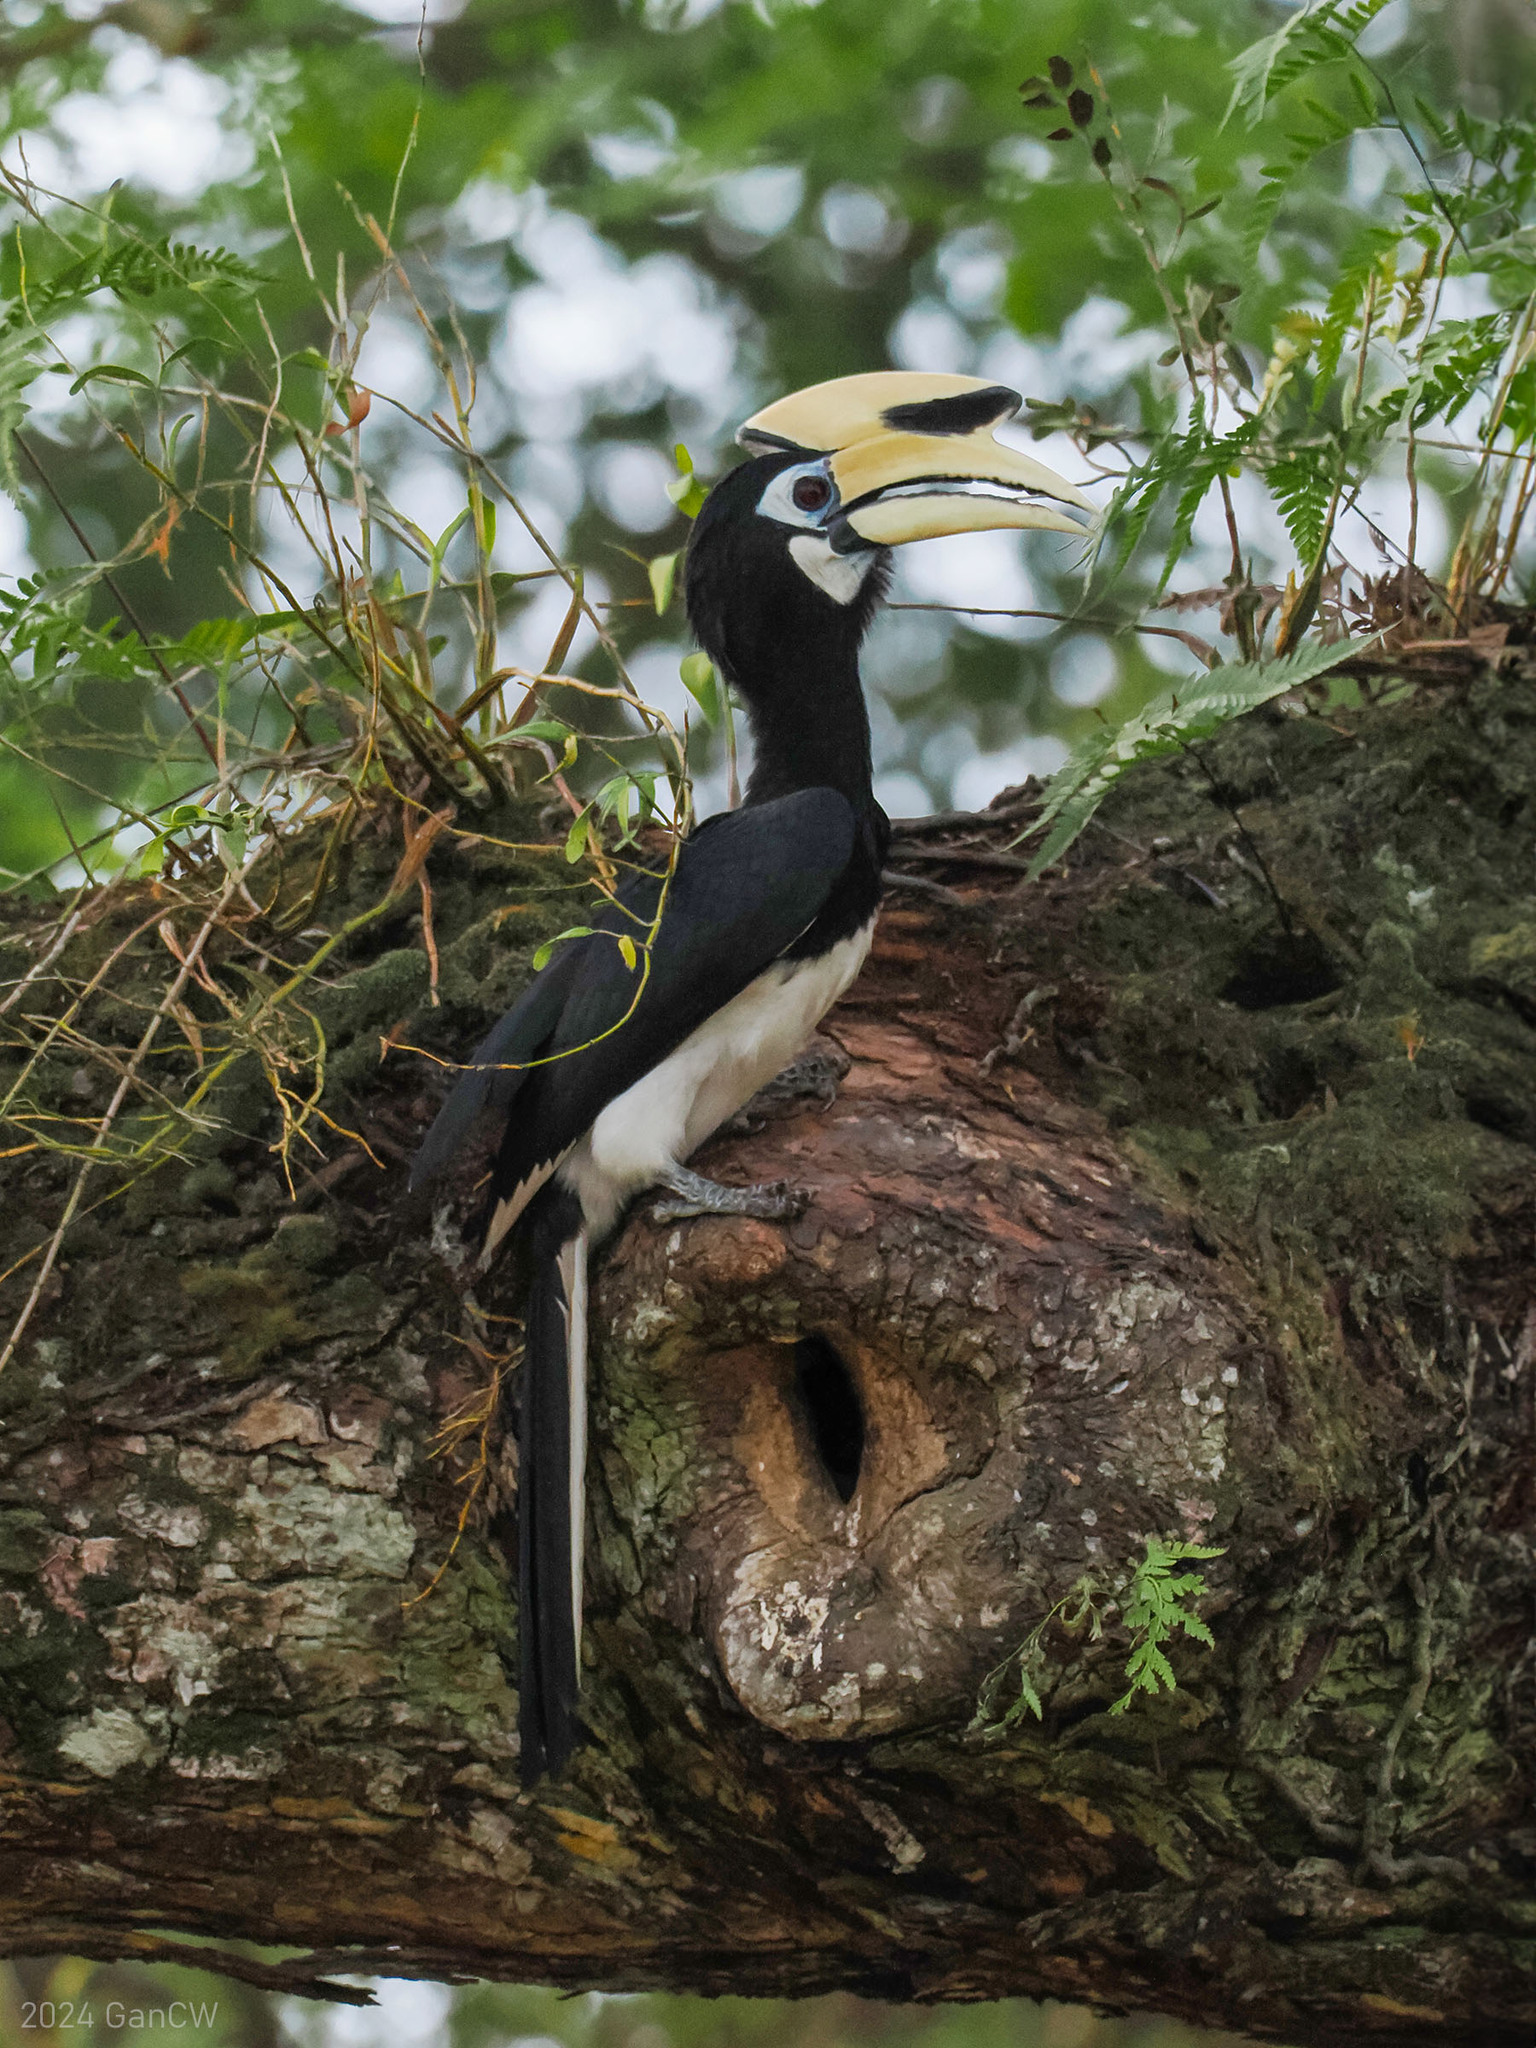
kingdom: Animalia
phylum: Chordata
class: Aves
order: Bucerotiformes
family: Bucerotidae
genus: Anthracoceros
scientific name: Anthracoceros albirostris
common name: Oriental pied-hornbill
